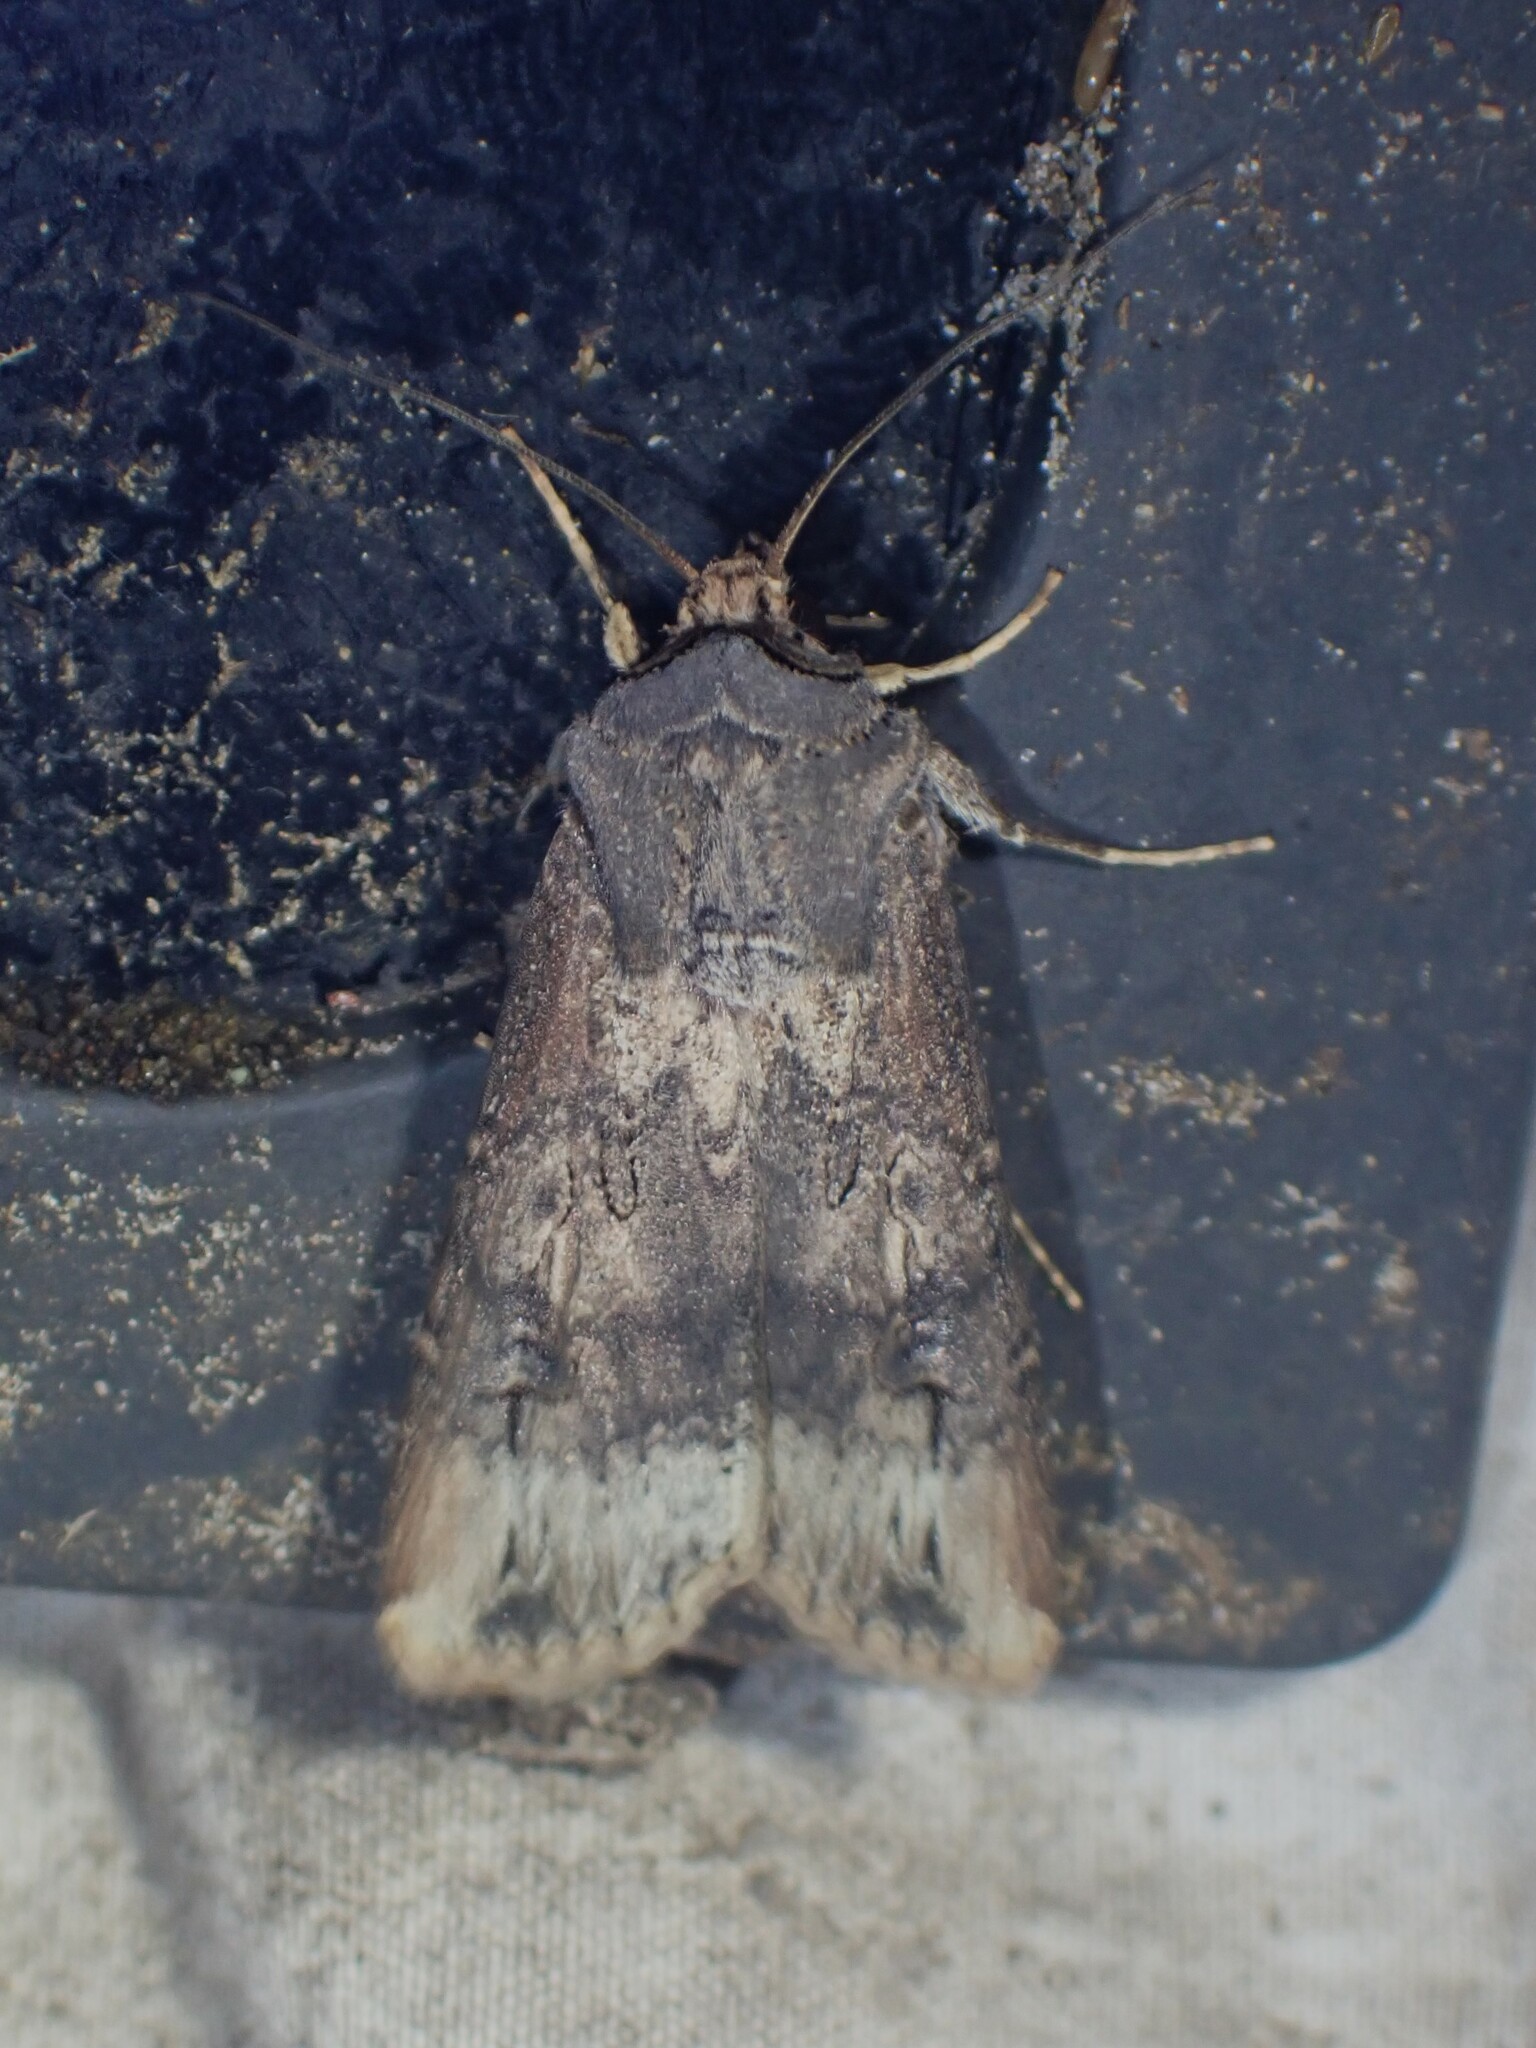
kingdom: Animalia
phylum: Arthropoda
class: Insecta
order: Lepidoptera
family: Noctuidae
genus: Agrotis
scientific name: Agrotis ipsilon
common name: Dark sword-grass
